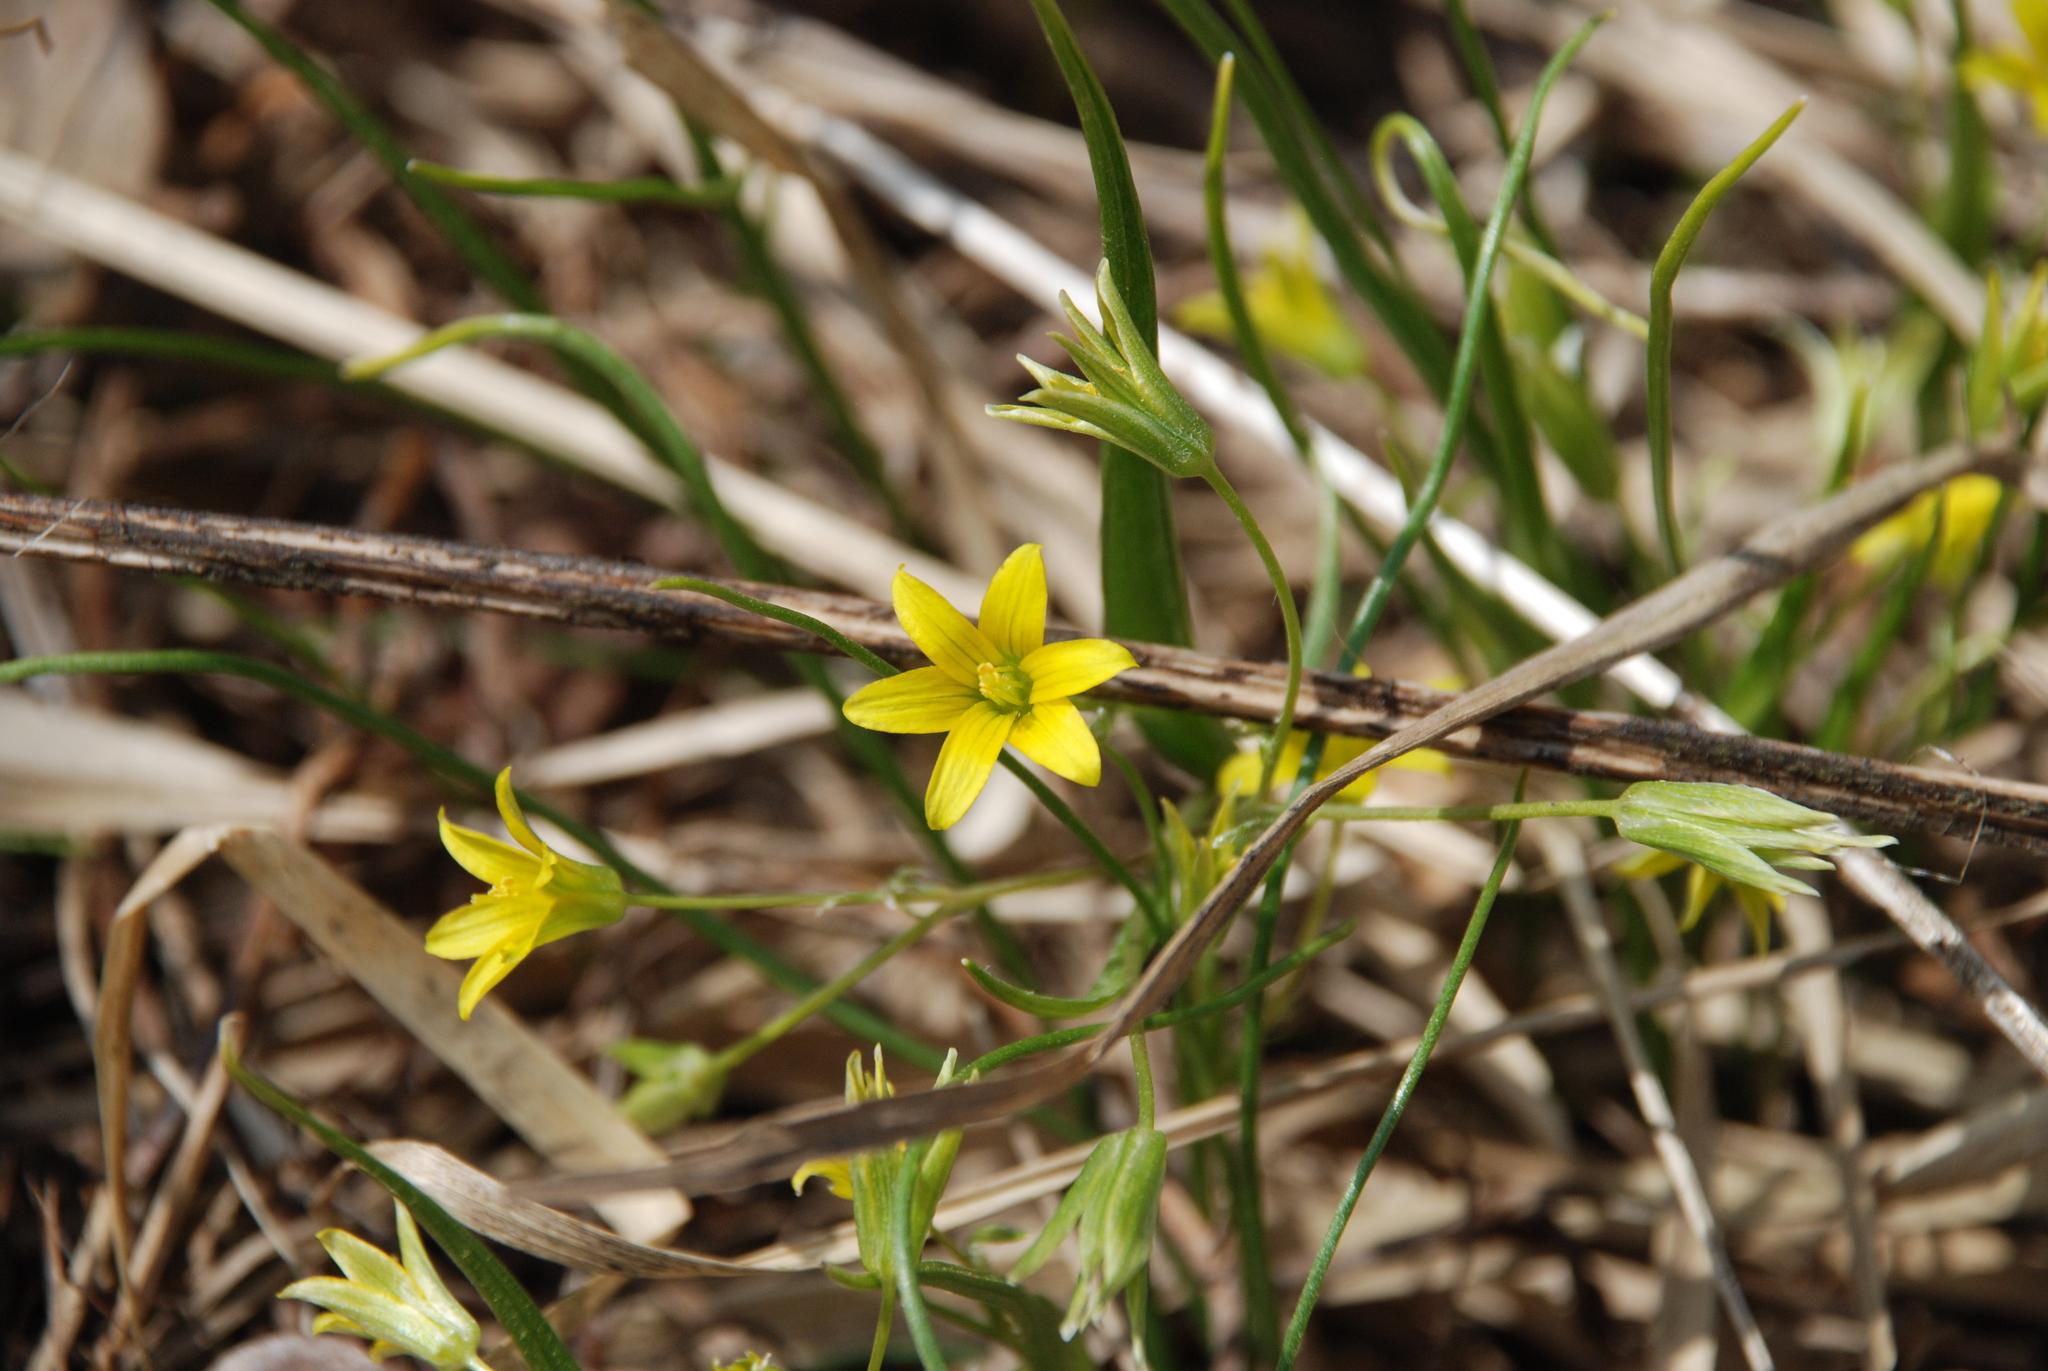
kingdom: Plantae
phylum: Tracheophyta
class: Liliopsida
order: Liliales
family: Liliaceae
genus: Gagea
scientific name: Gagea minima
